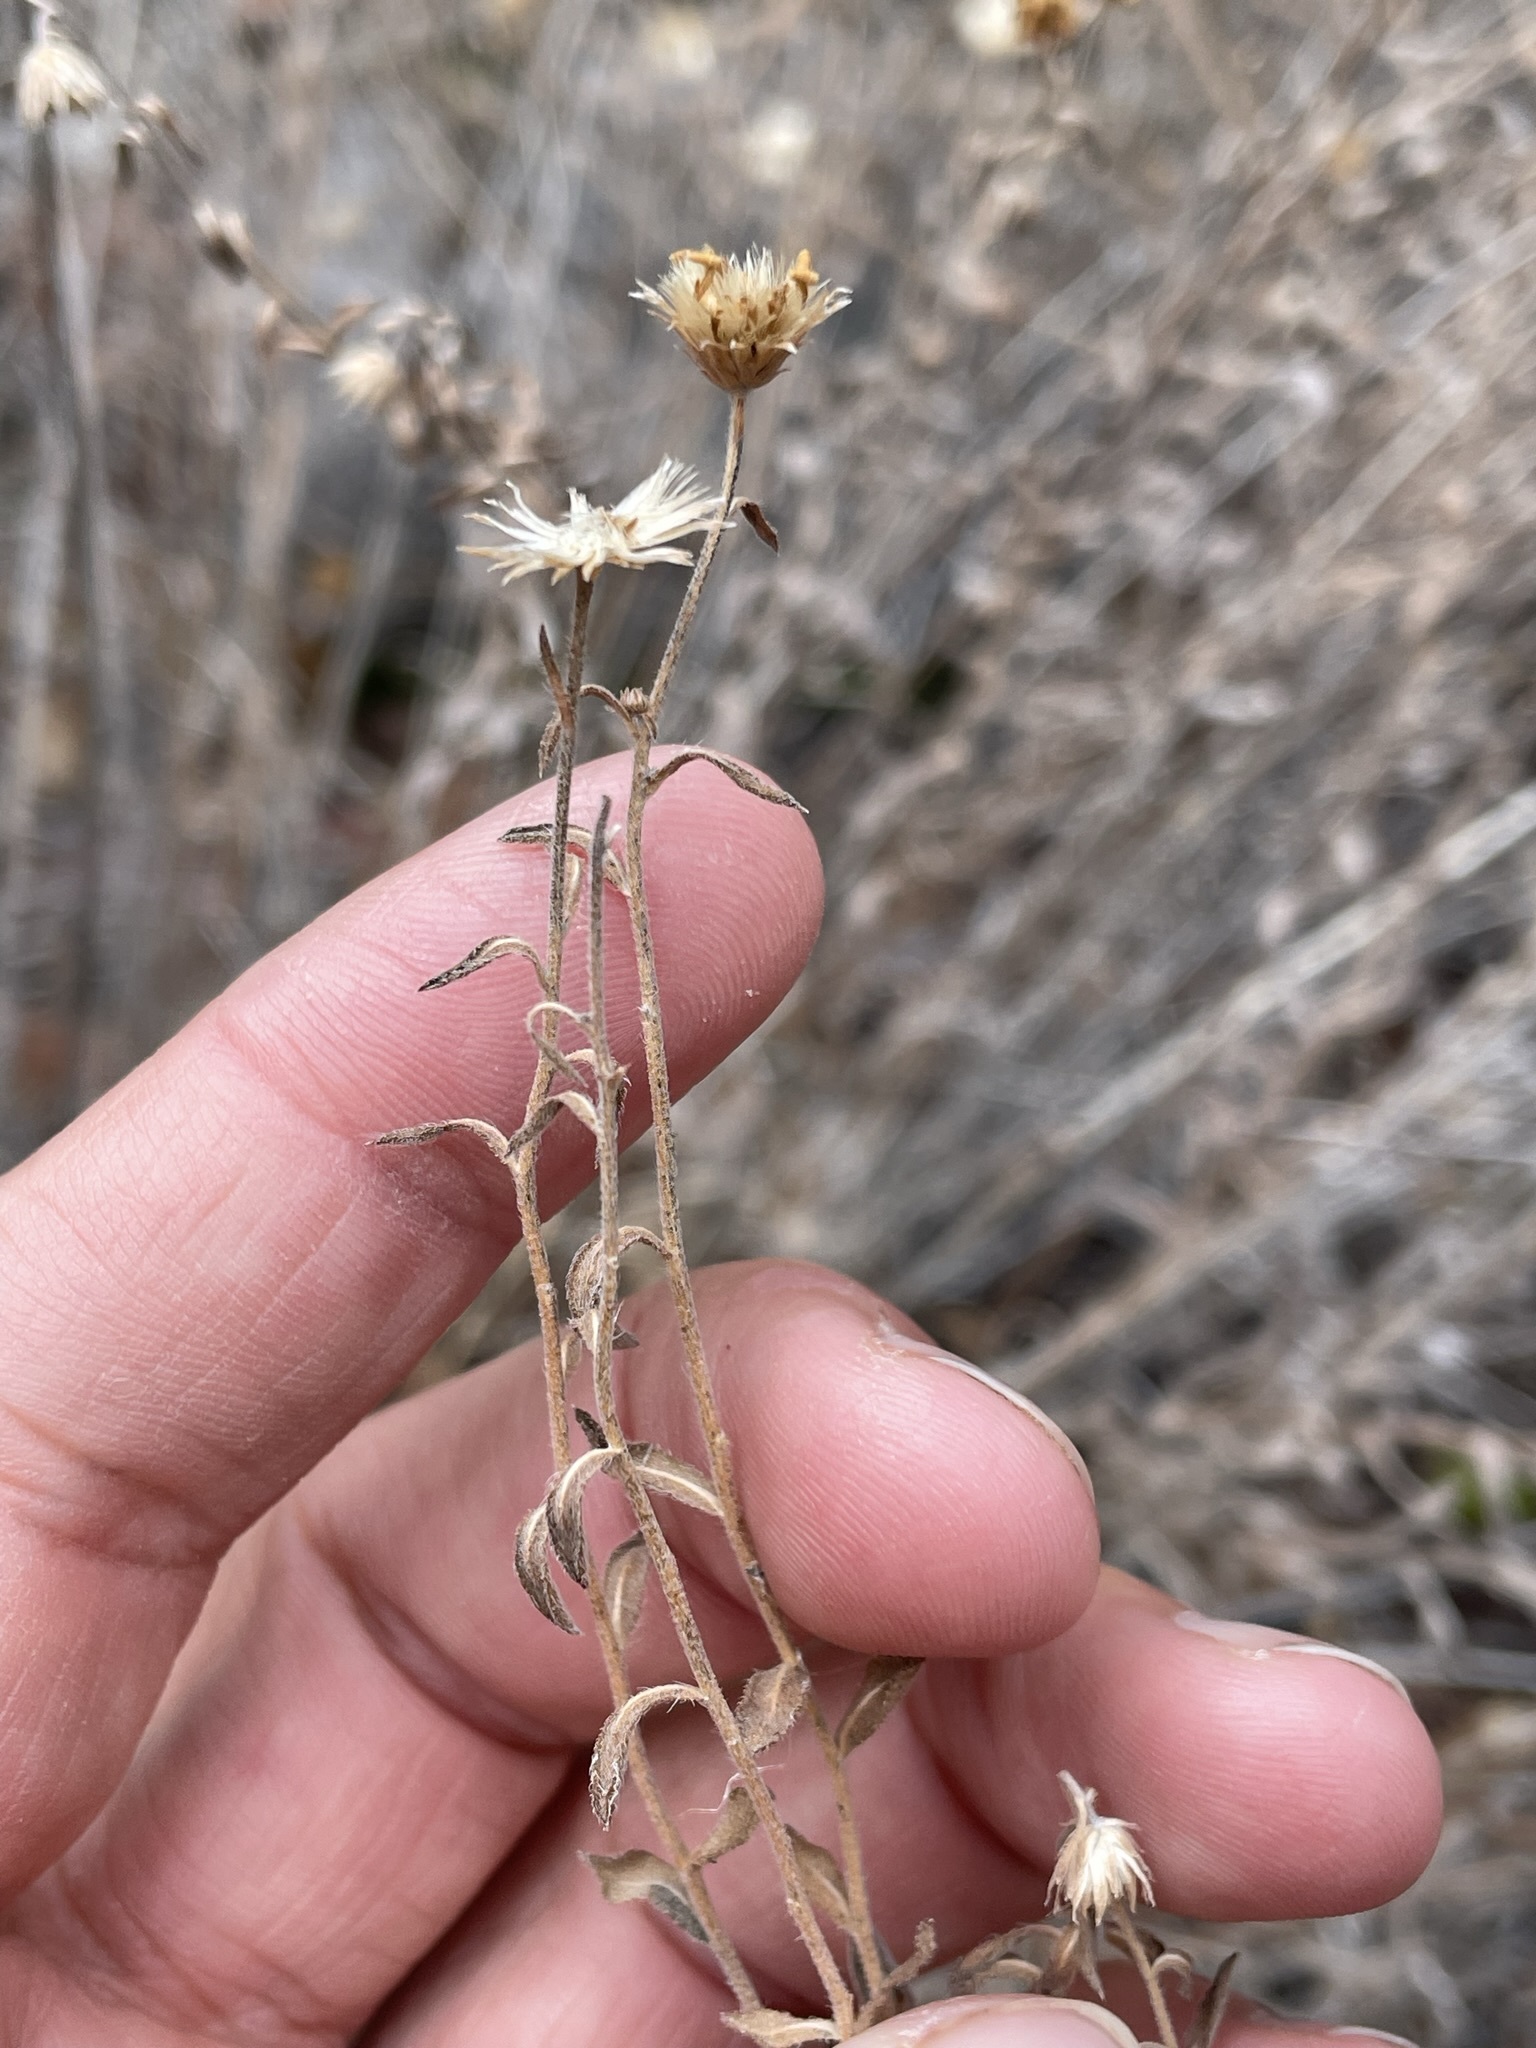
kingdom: Plantae
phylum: Tracheophyta
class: Magnoliopsida
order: Asterales
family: Asteraceae
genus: Heterotheca
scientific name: Heterotheca excelsior
